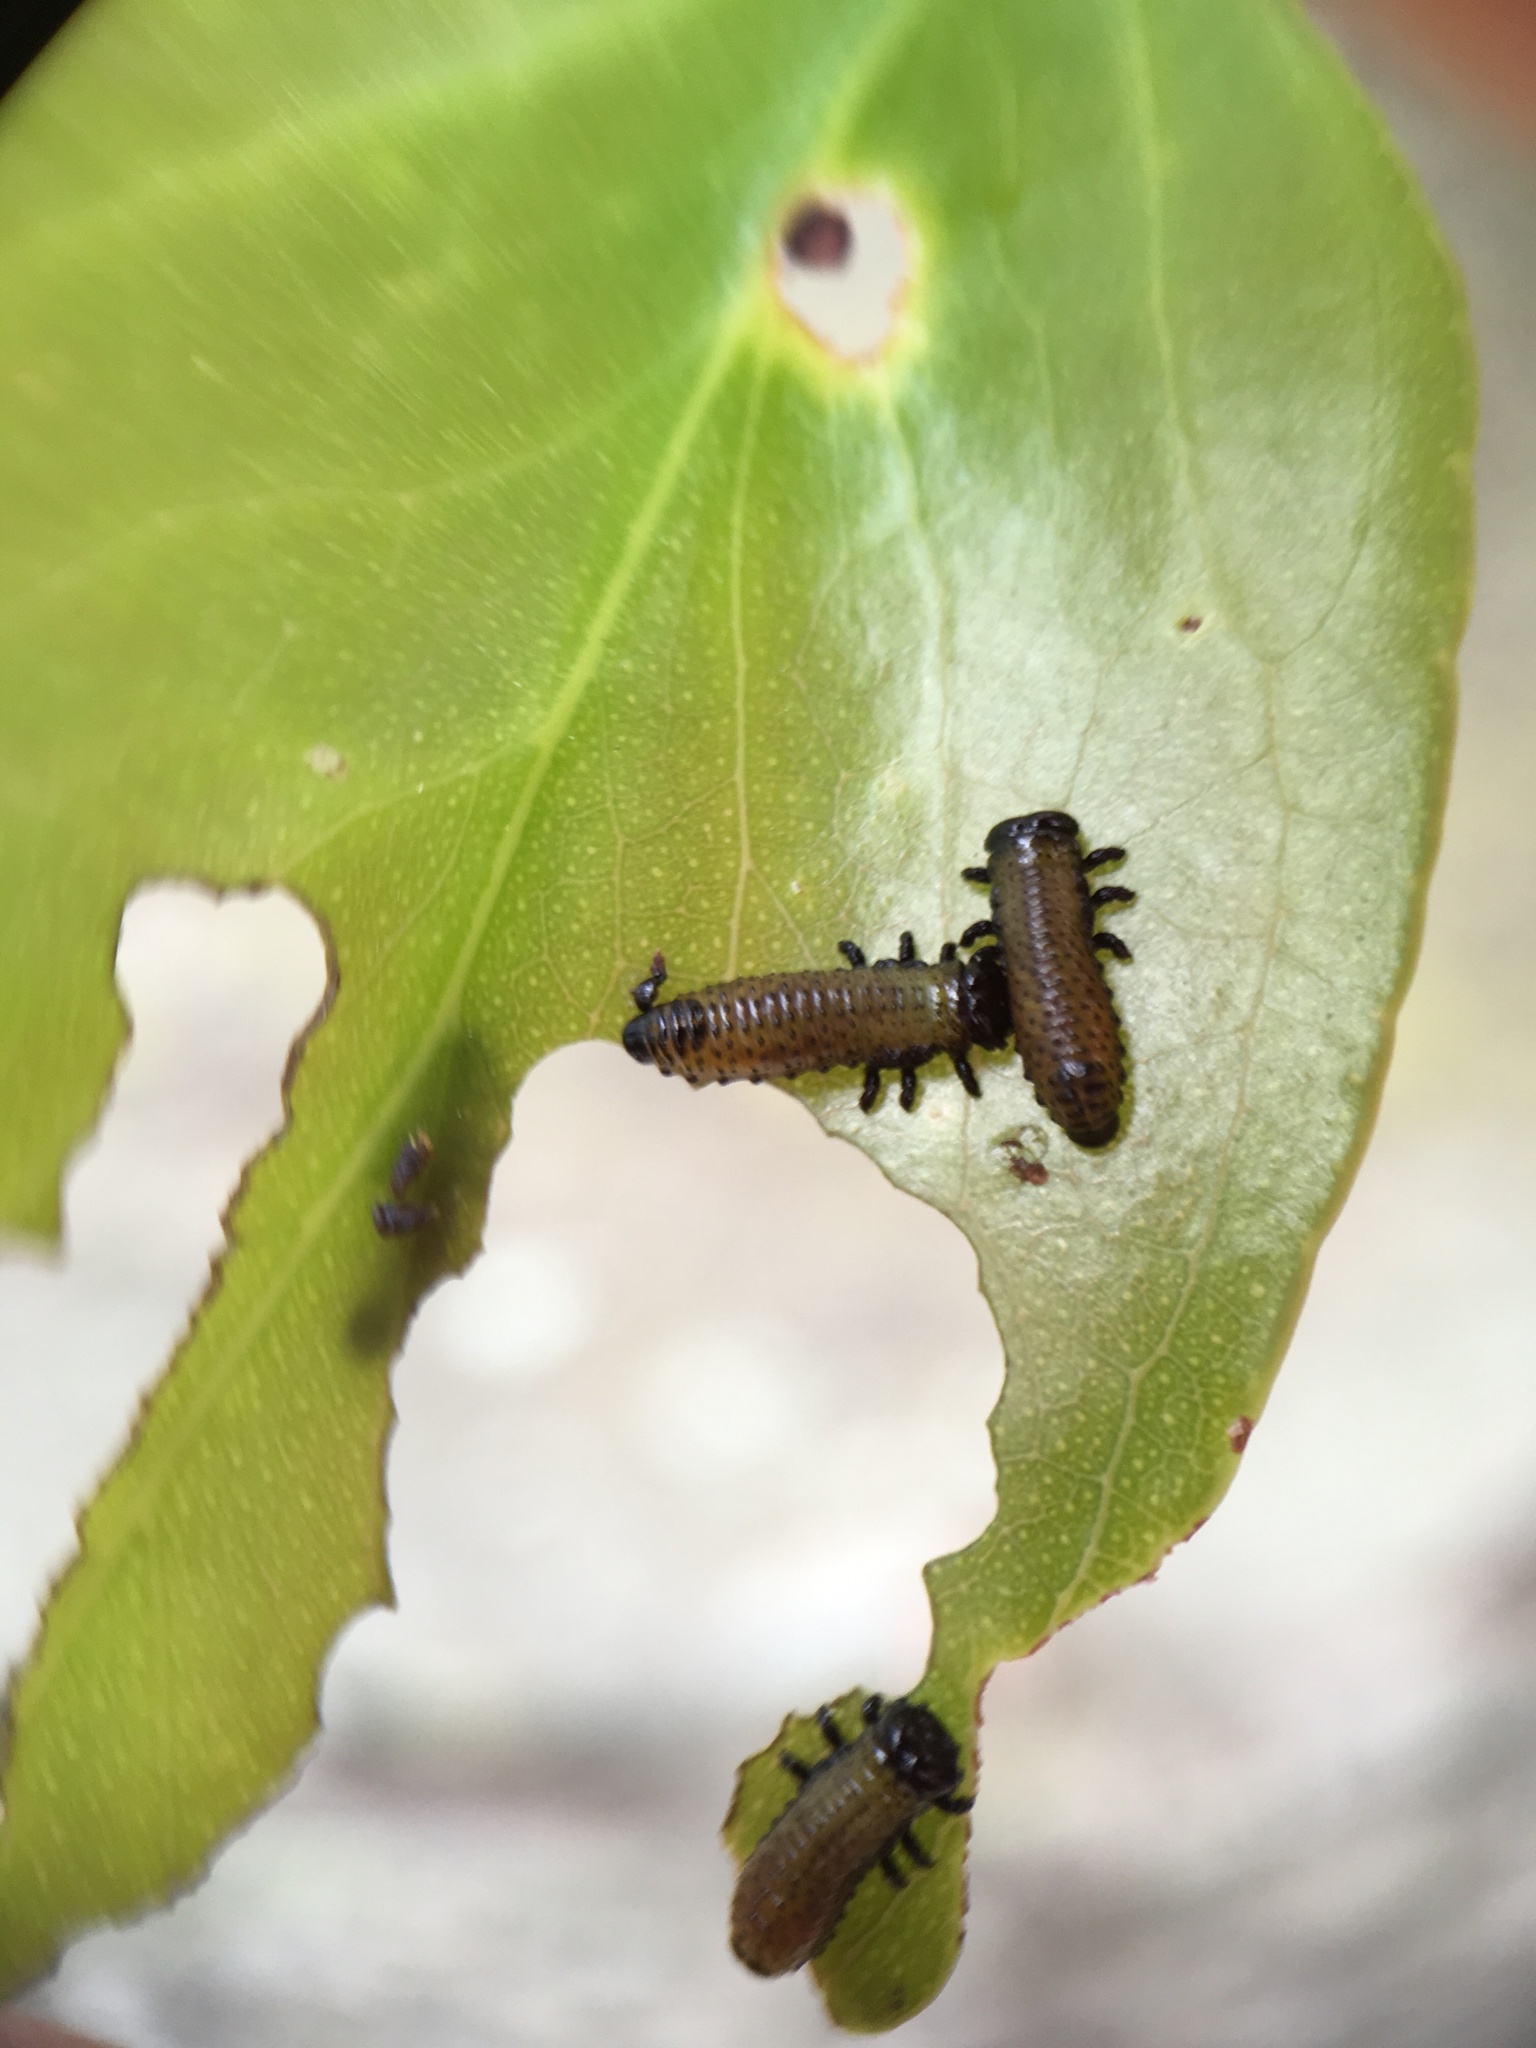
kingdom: Animalia
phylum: Arthropoda
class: Insecta
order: Coleoptera
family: Chrysomelidae
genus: Paropsis
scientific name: Paropsis charybdis
